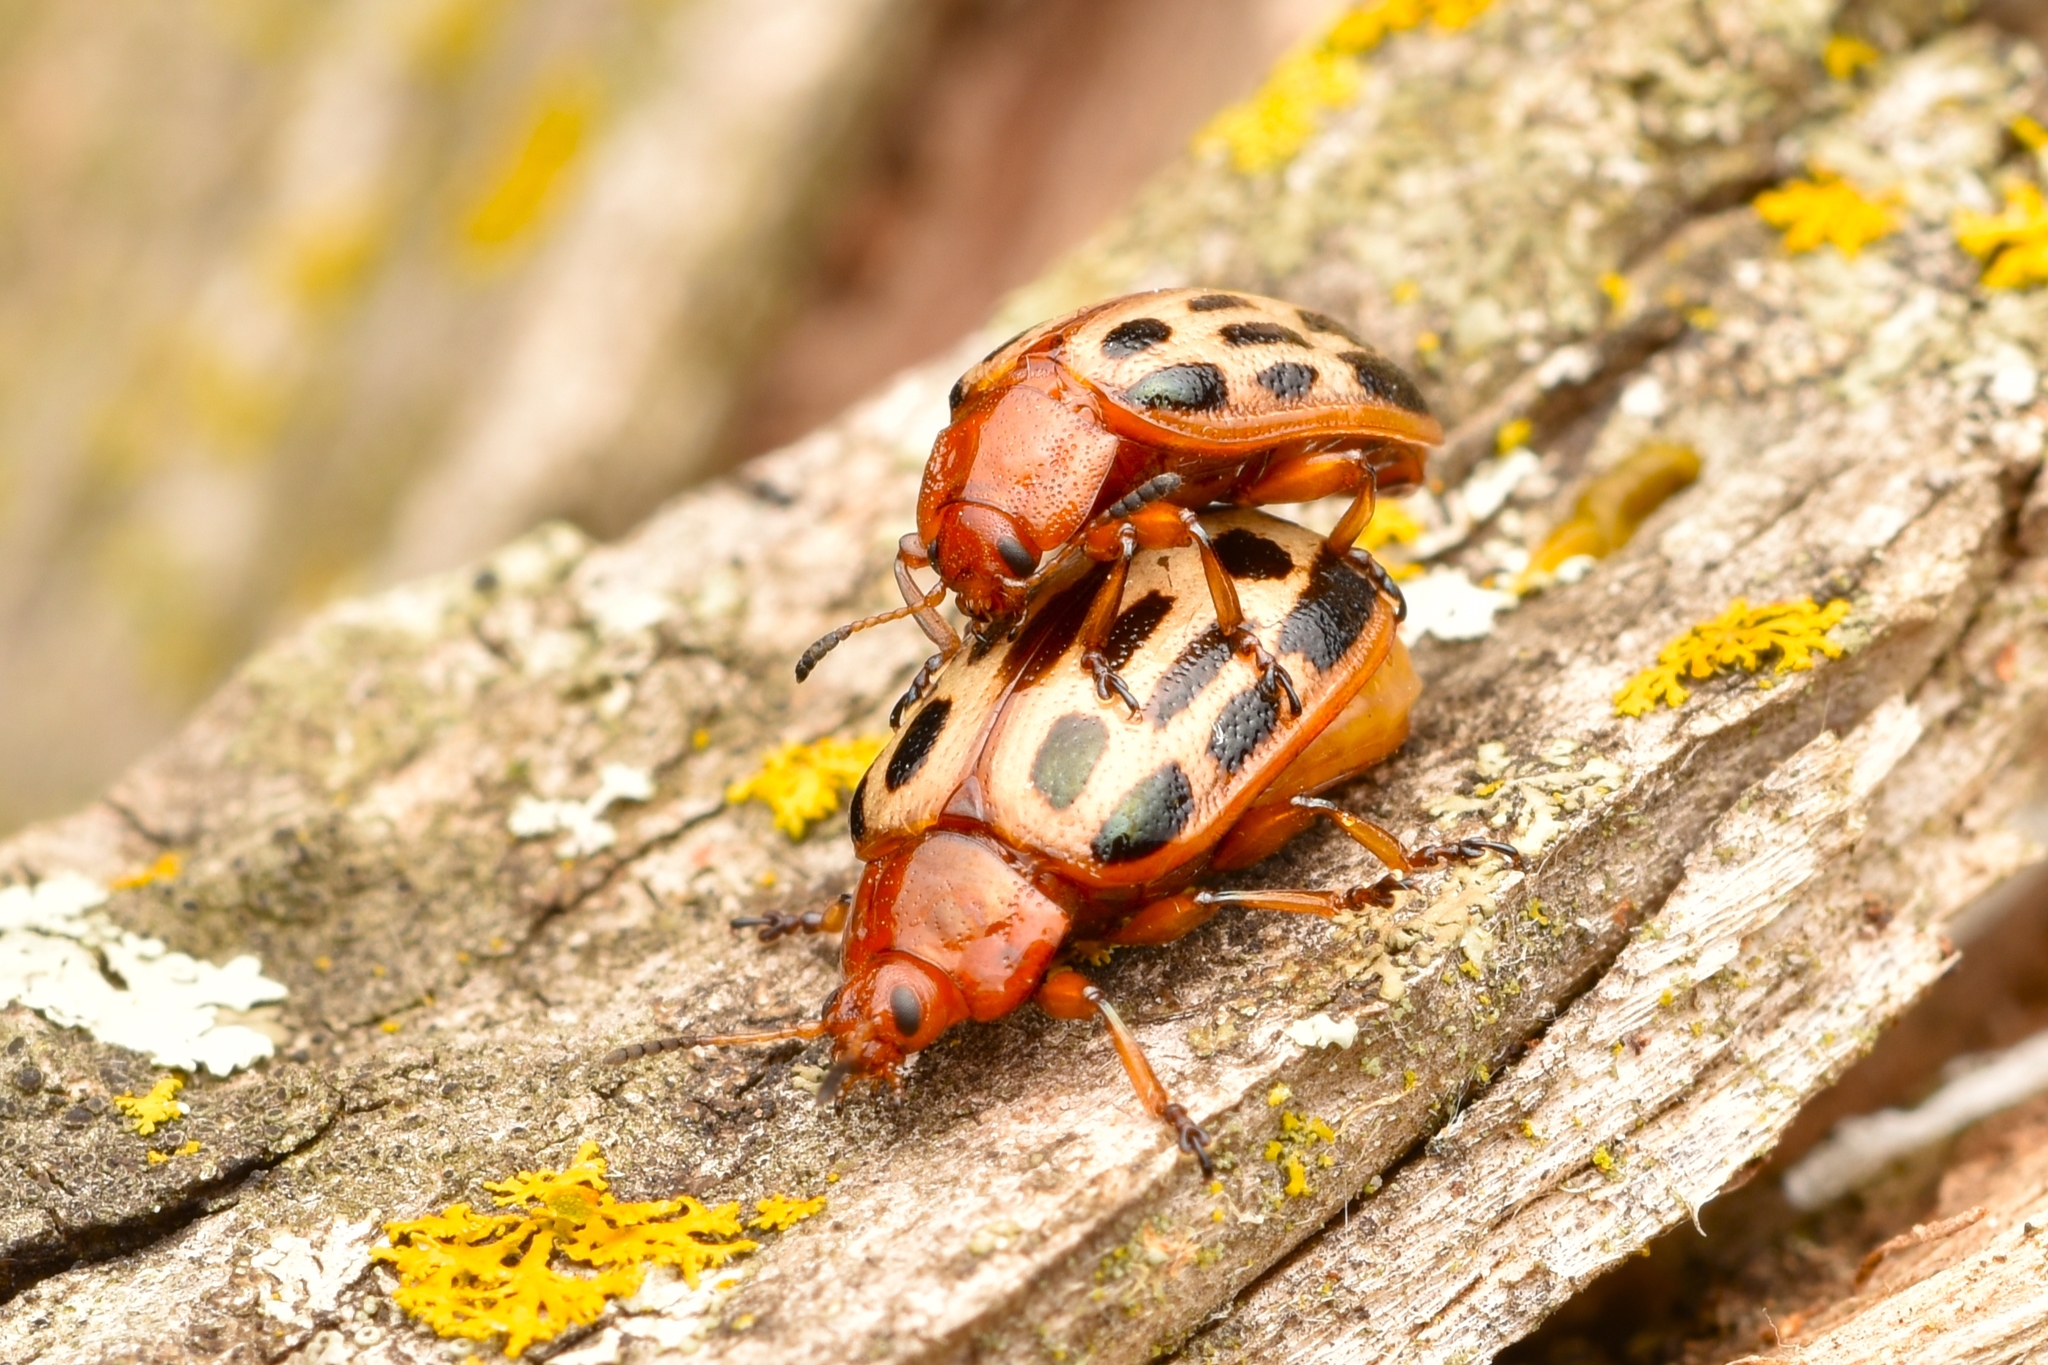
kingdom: Animalia
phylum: Arthropoda
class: Insecta
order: Coleoptera
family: Chrysomelidae
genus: Chrysomela
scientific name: Chrysomela texana
